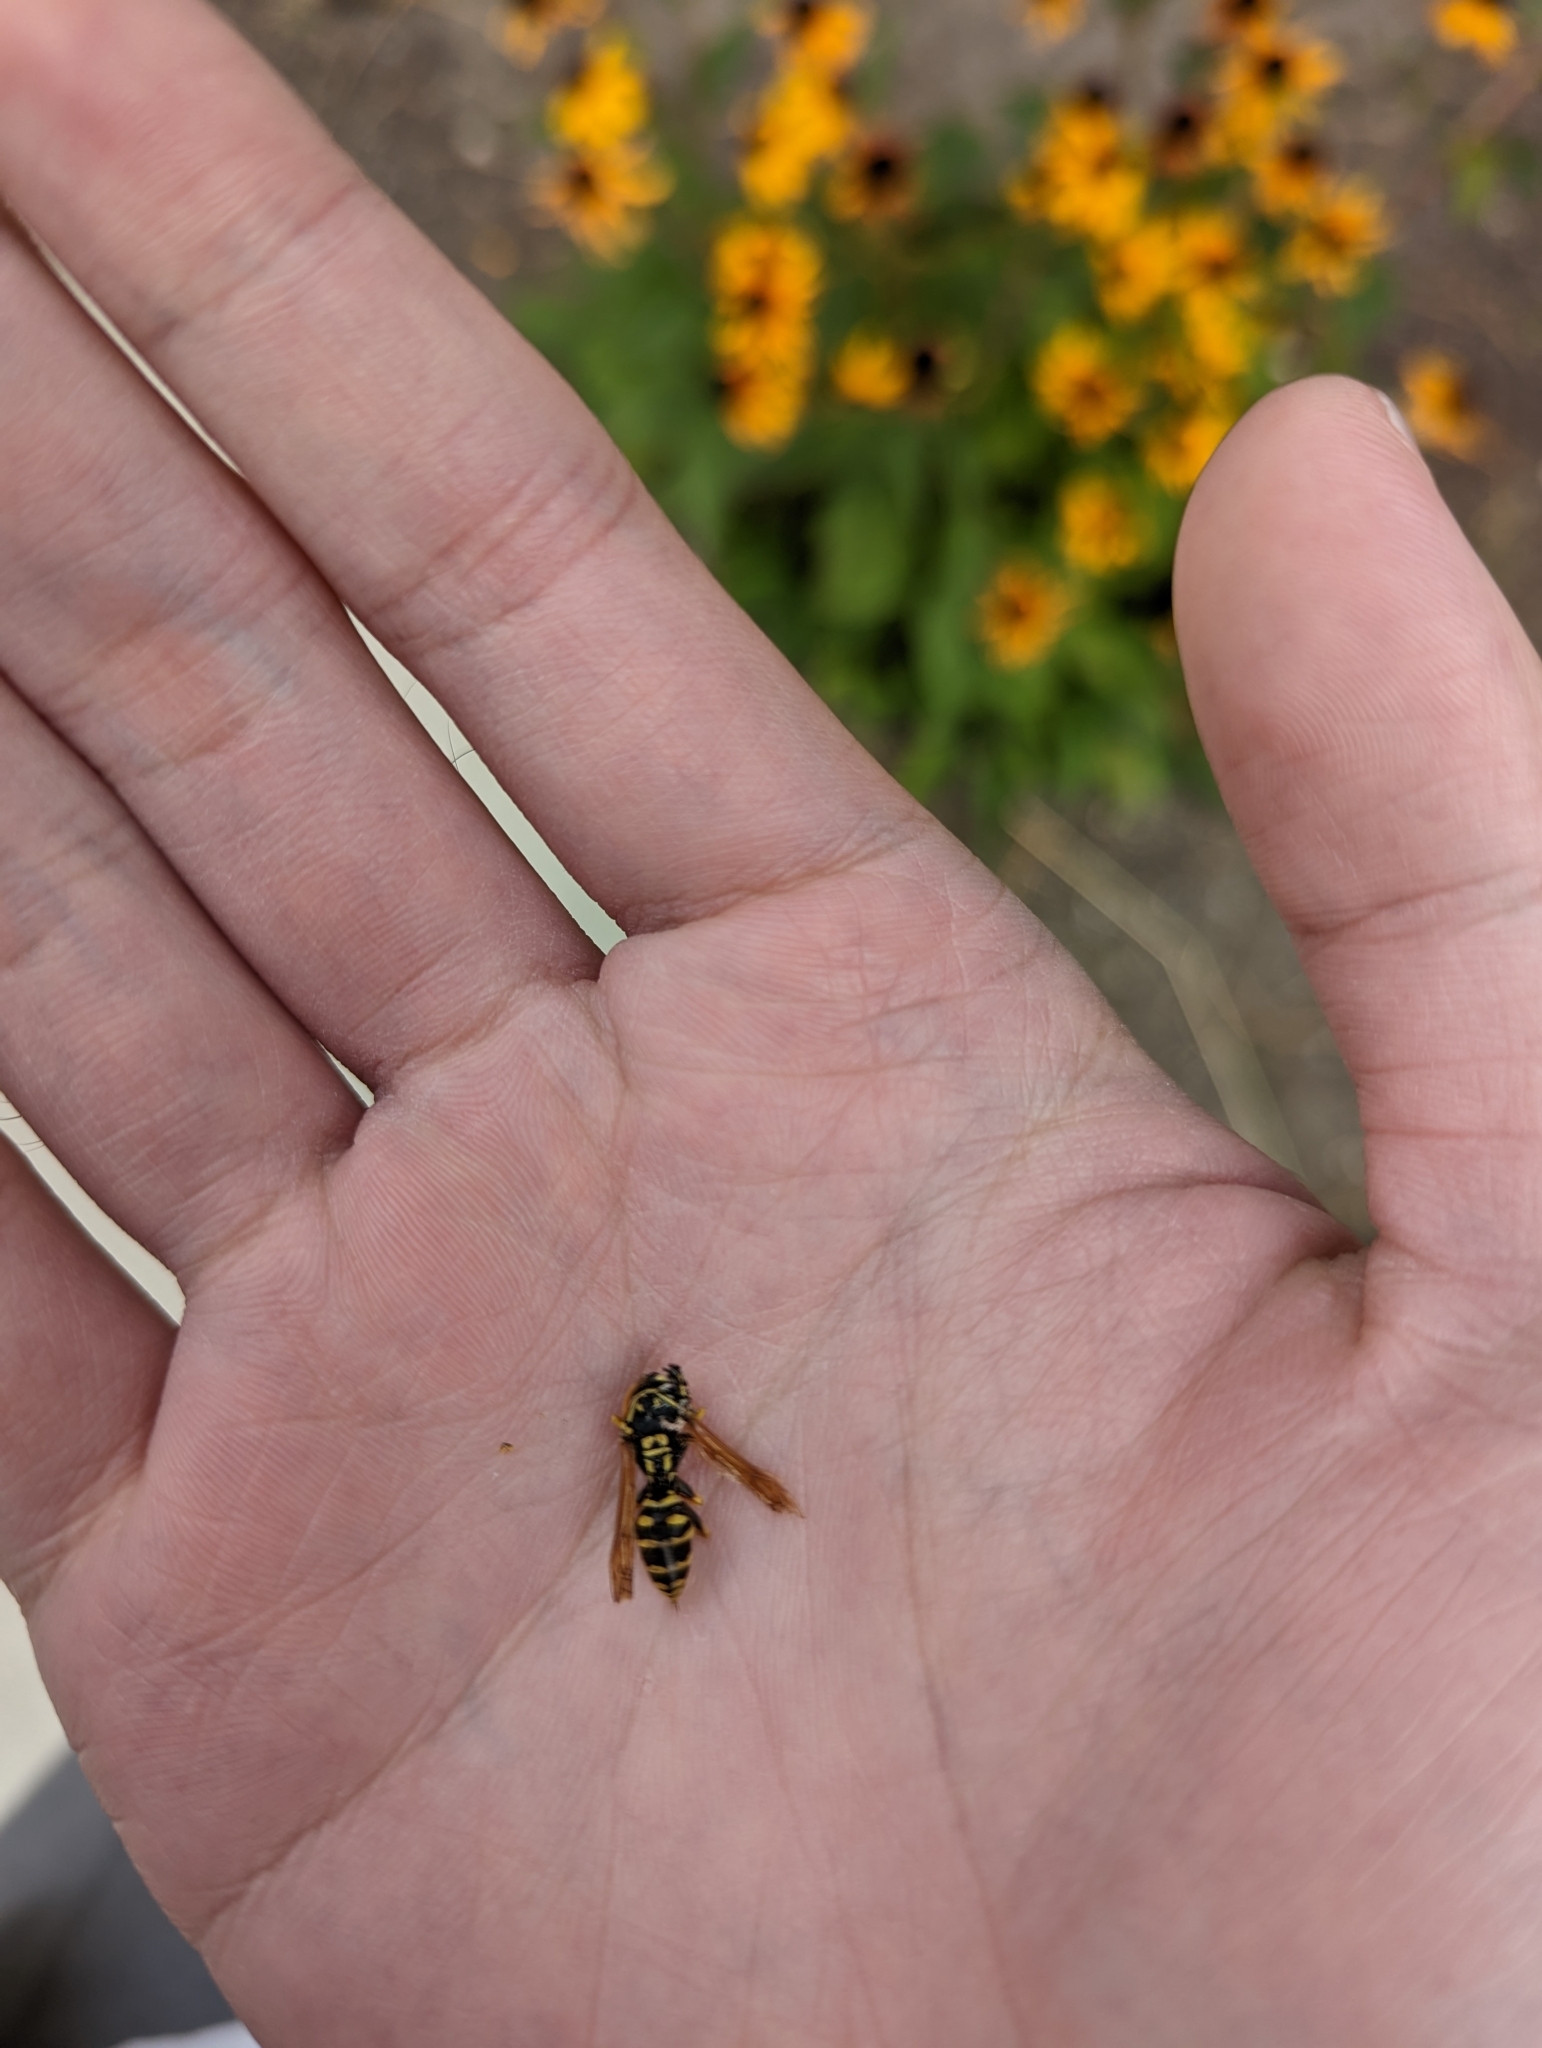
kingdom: Animalia
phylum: Arthropoda
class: Insecta
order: Hymenoptera
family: Eumenidae
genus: Polistes
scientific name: Polistes dominula
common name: Paper wasp
